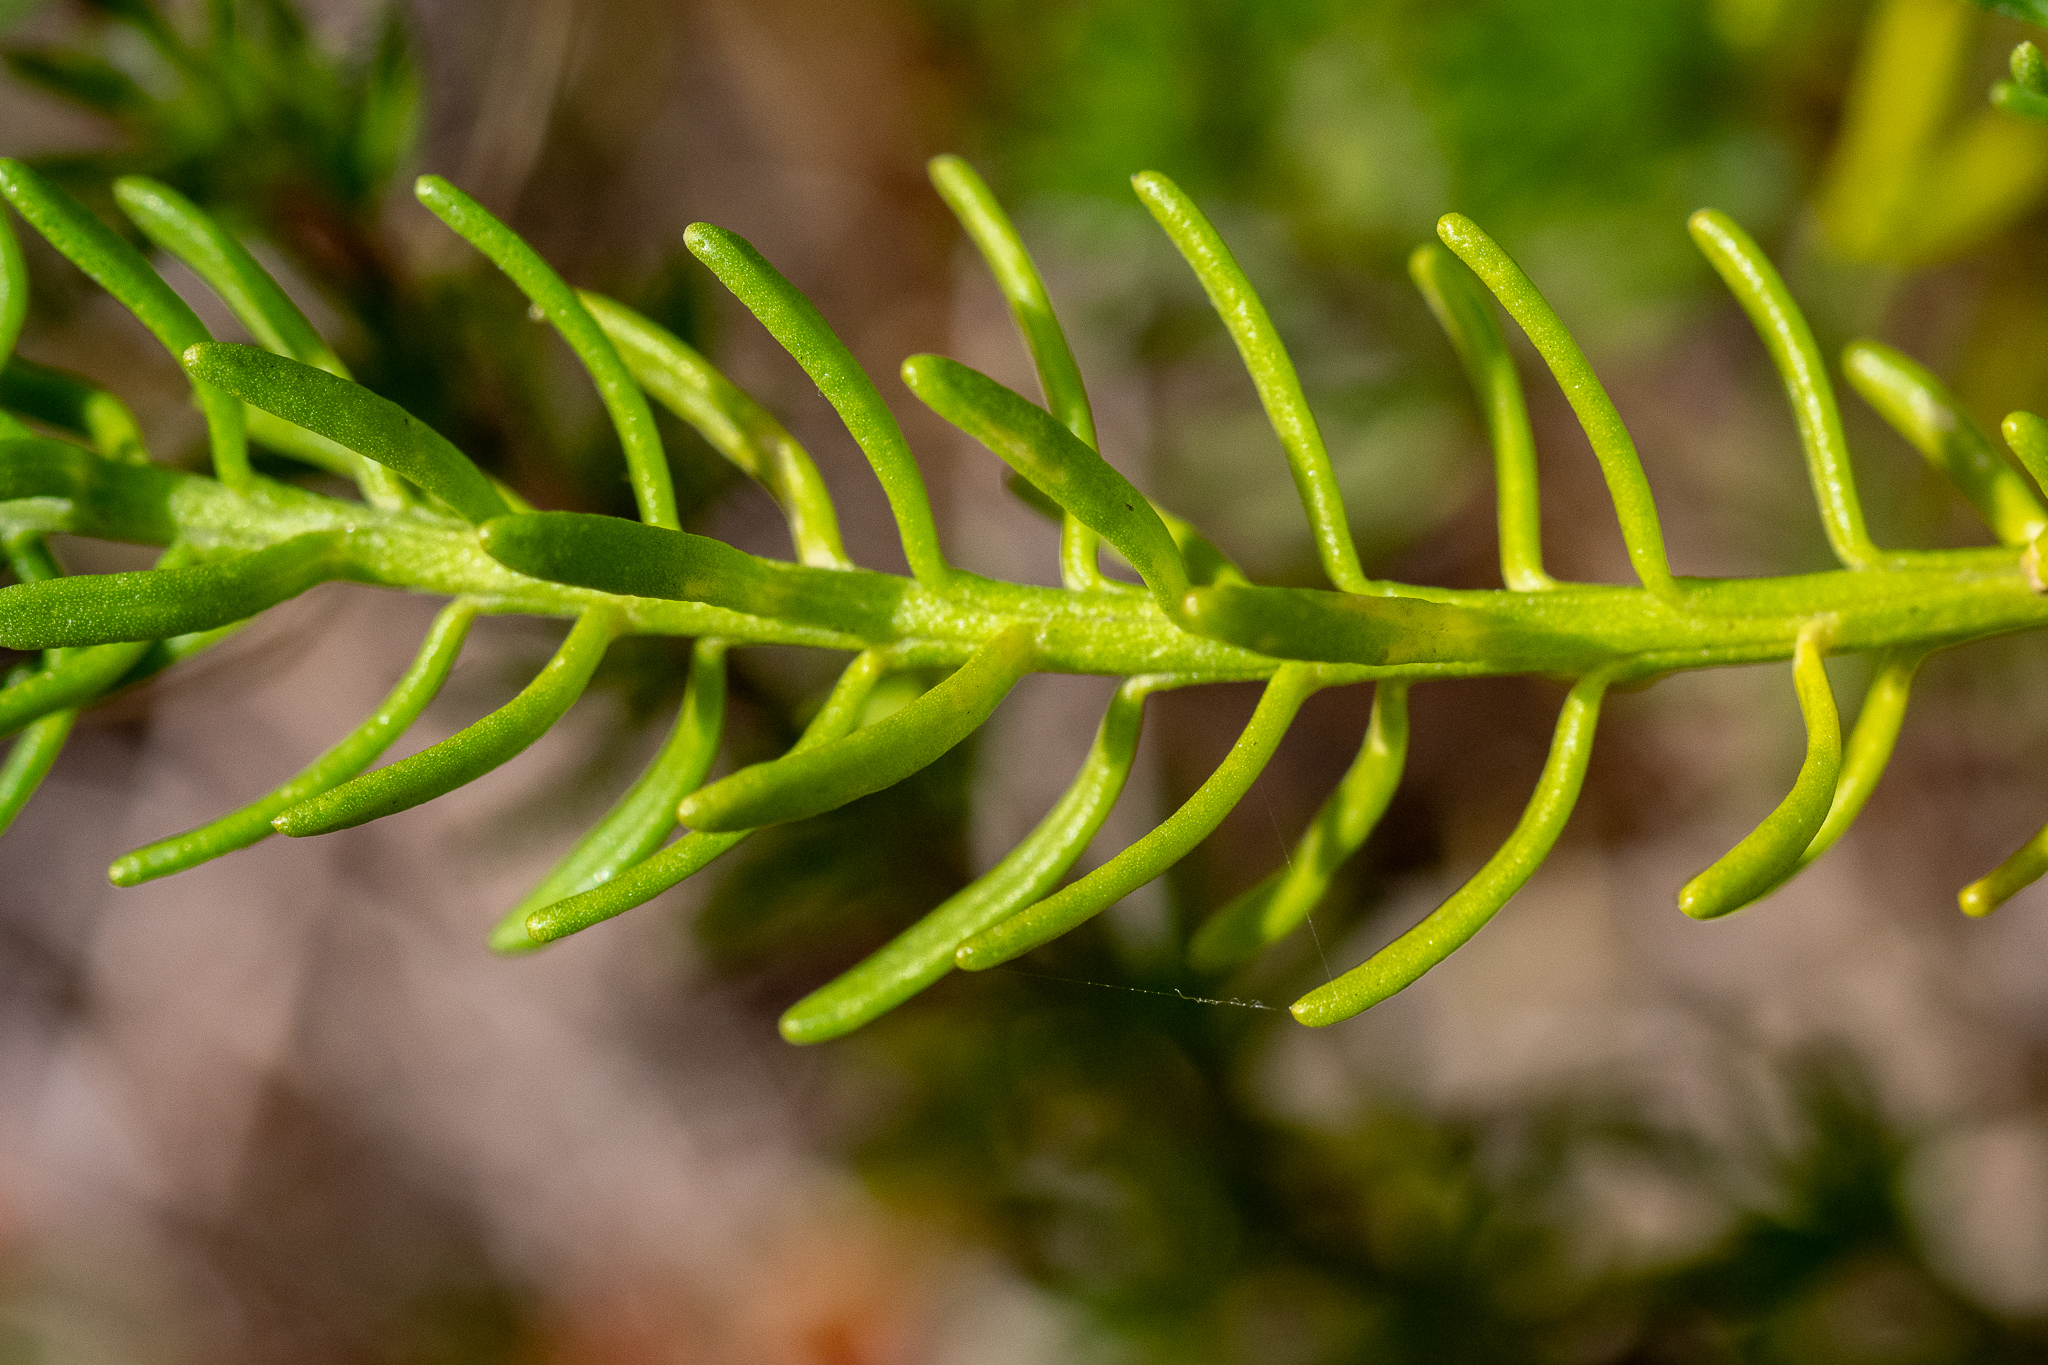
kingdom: Plantae
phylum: Tracheophyta
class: Magnoliopsida
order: Asterales
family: Asteraceae
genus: Chrysocoma
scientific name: Chrysocoma cernua
